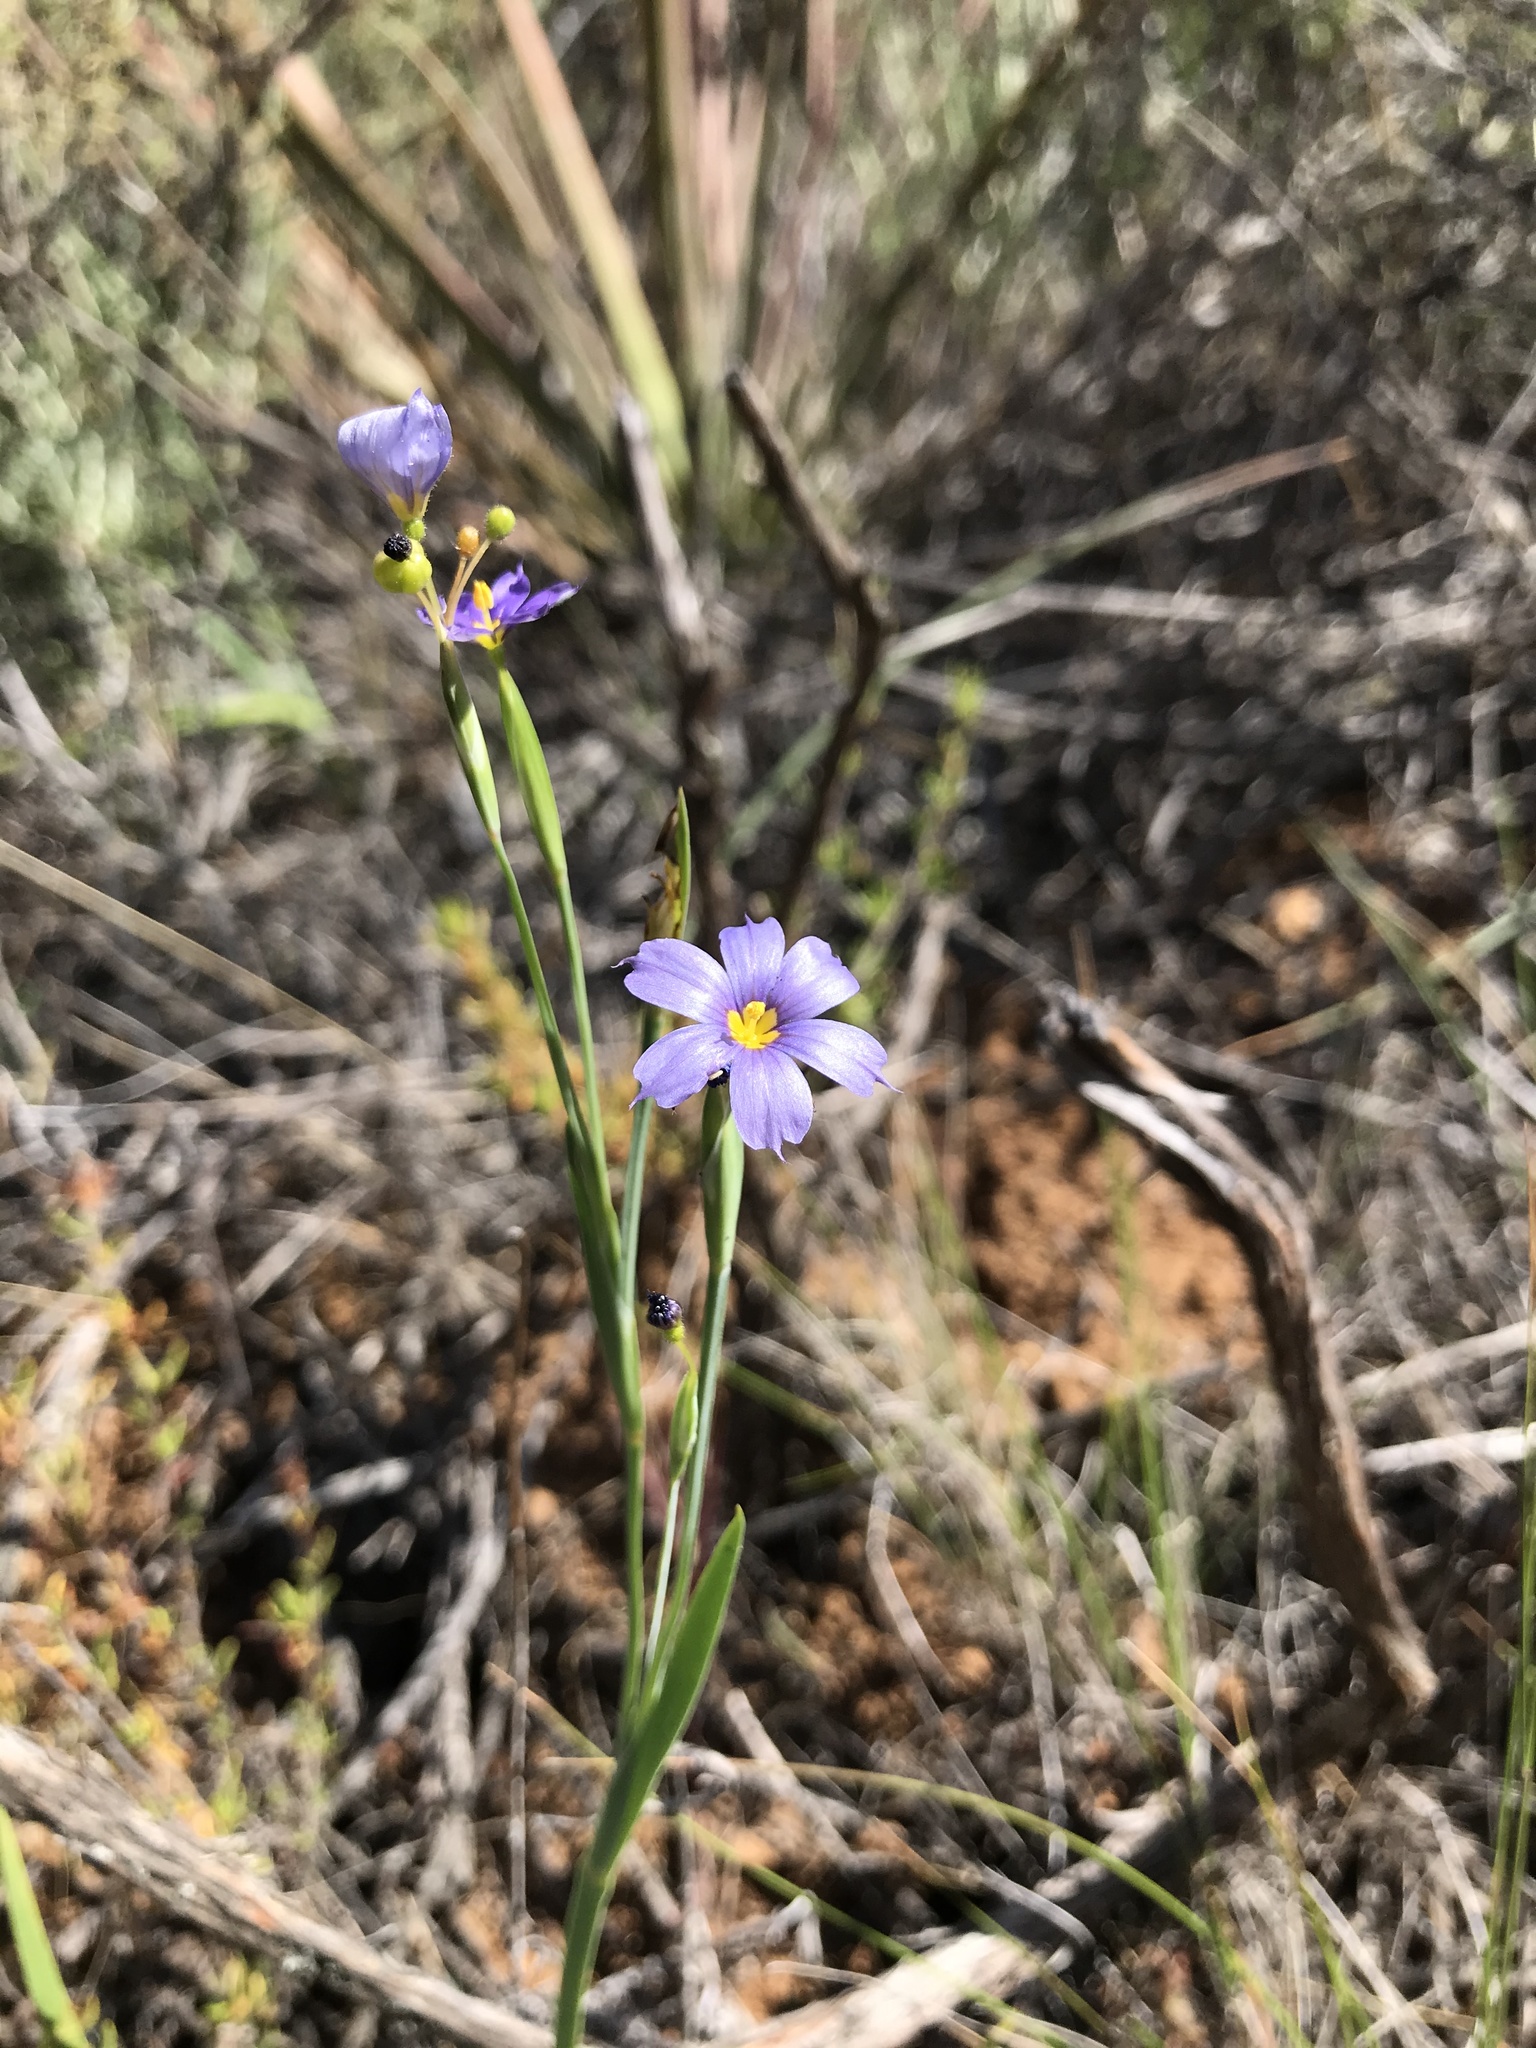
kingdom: Plantae
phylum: Tracheophyta
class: Liliopsida
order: Asparagales
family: Iridaceae
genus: Sisyrinchium
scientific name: Sisyrinchium bellum
